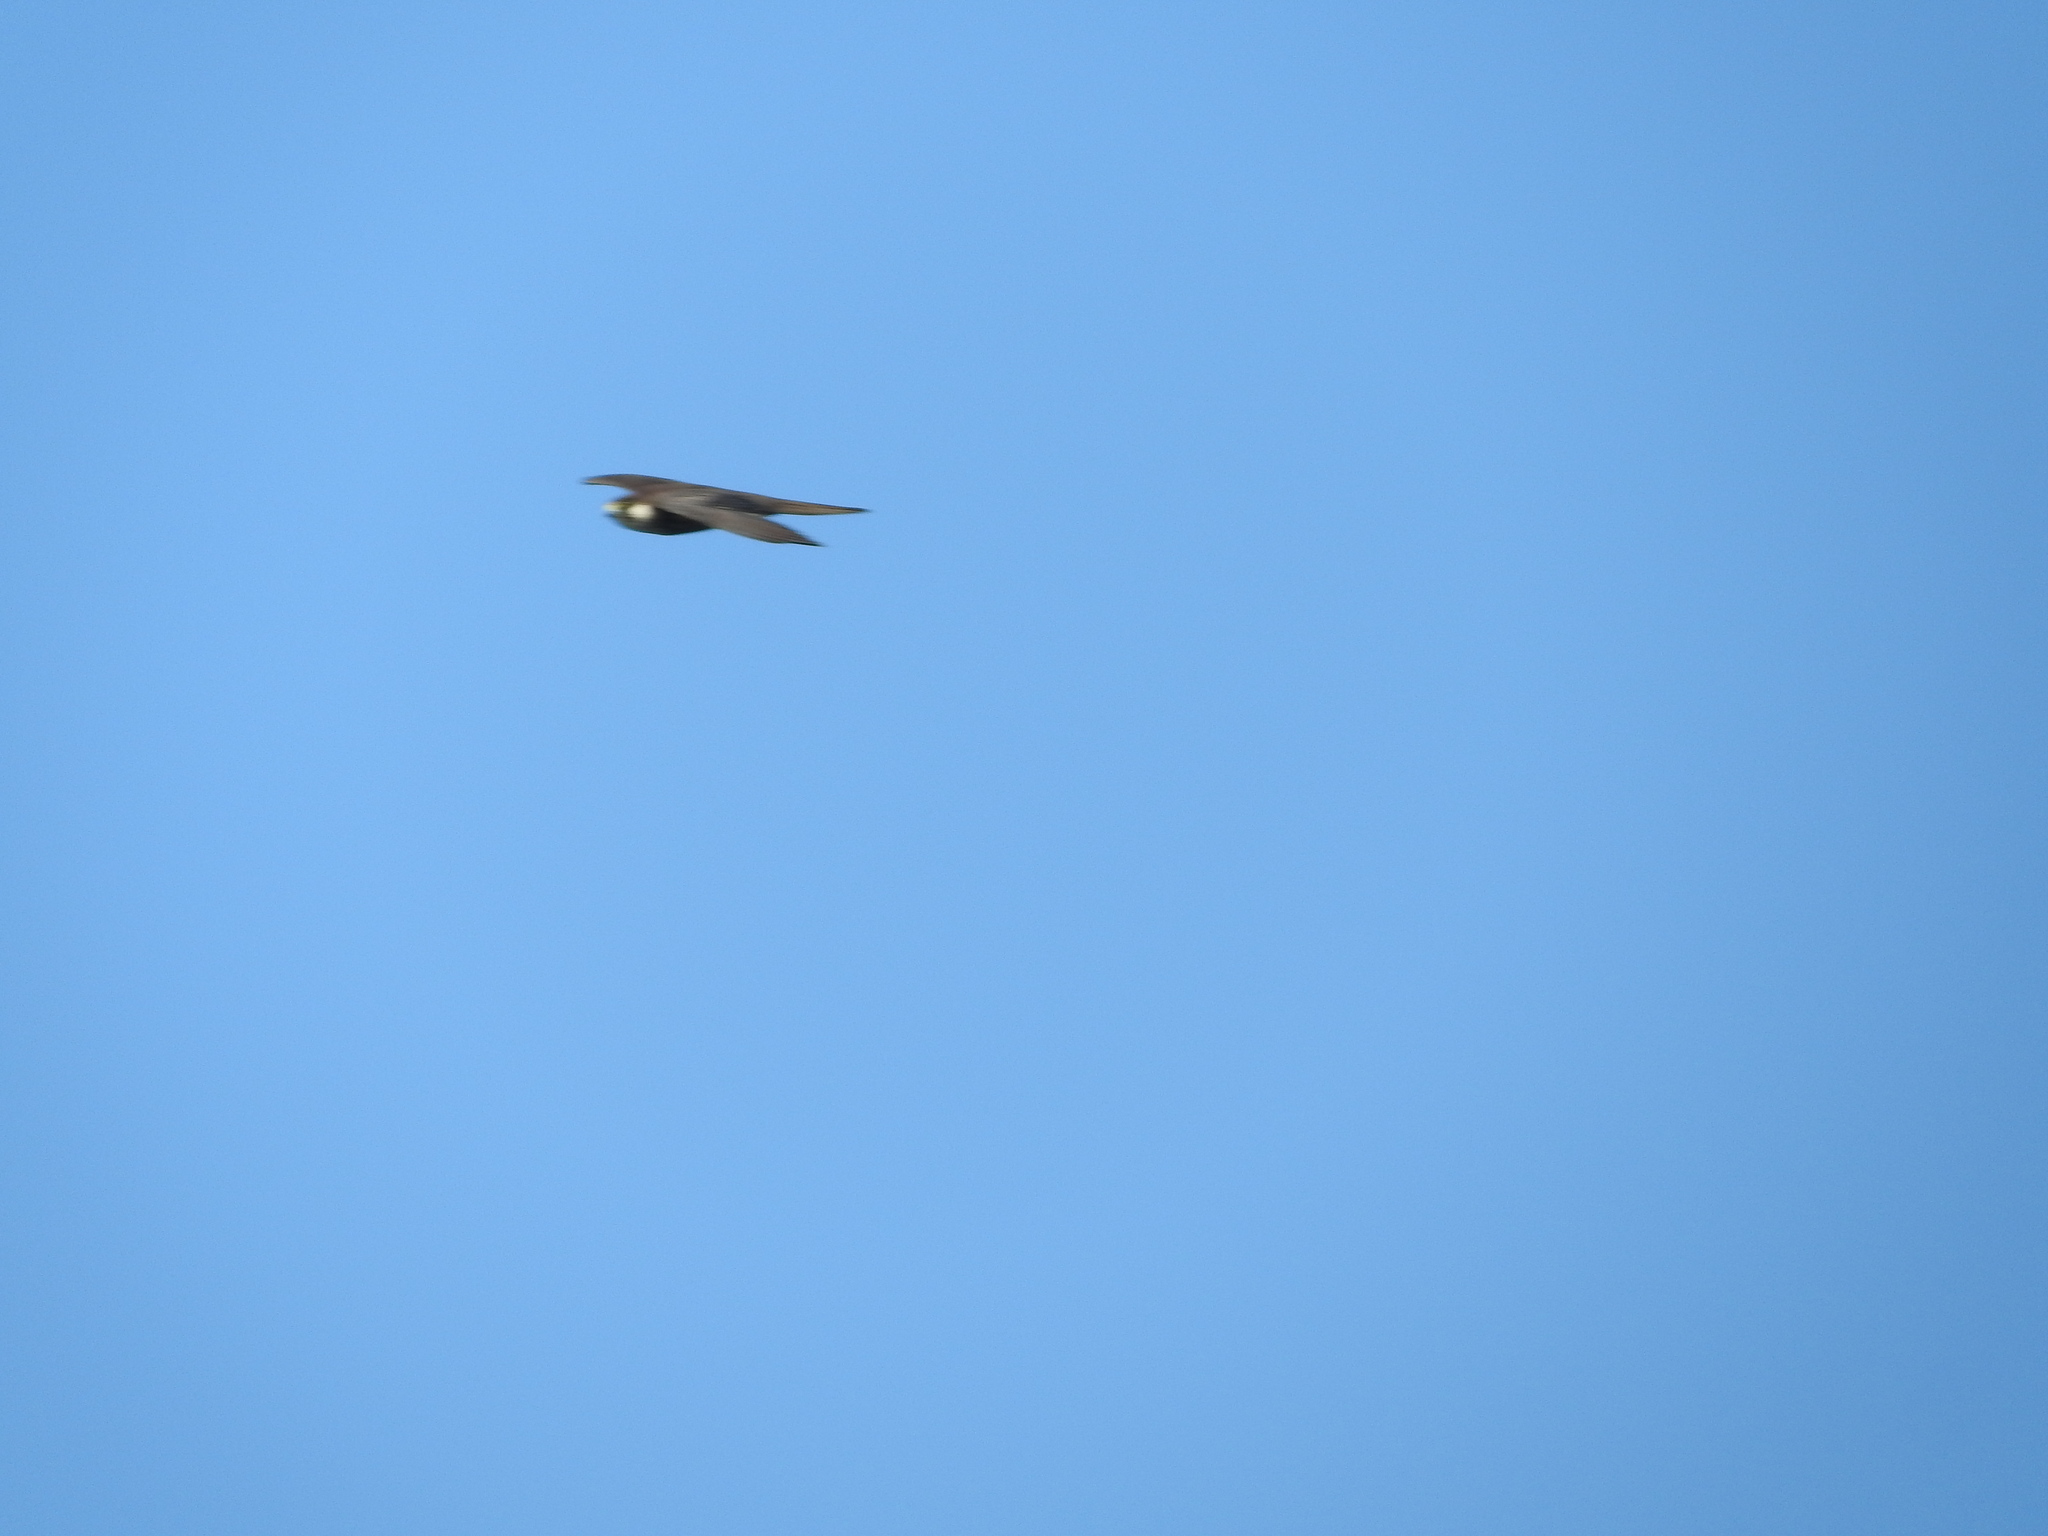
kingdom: Animalia
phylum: Chordata
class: Aves
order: Falconiformes
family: Falconidae
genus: Falco
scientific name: Falco eleonorae
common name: Eleonora's falcon
